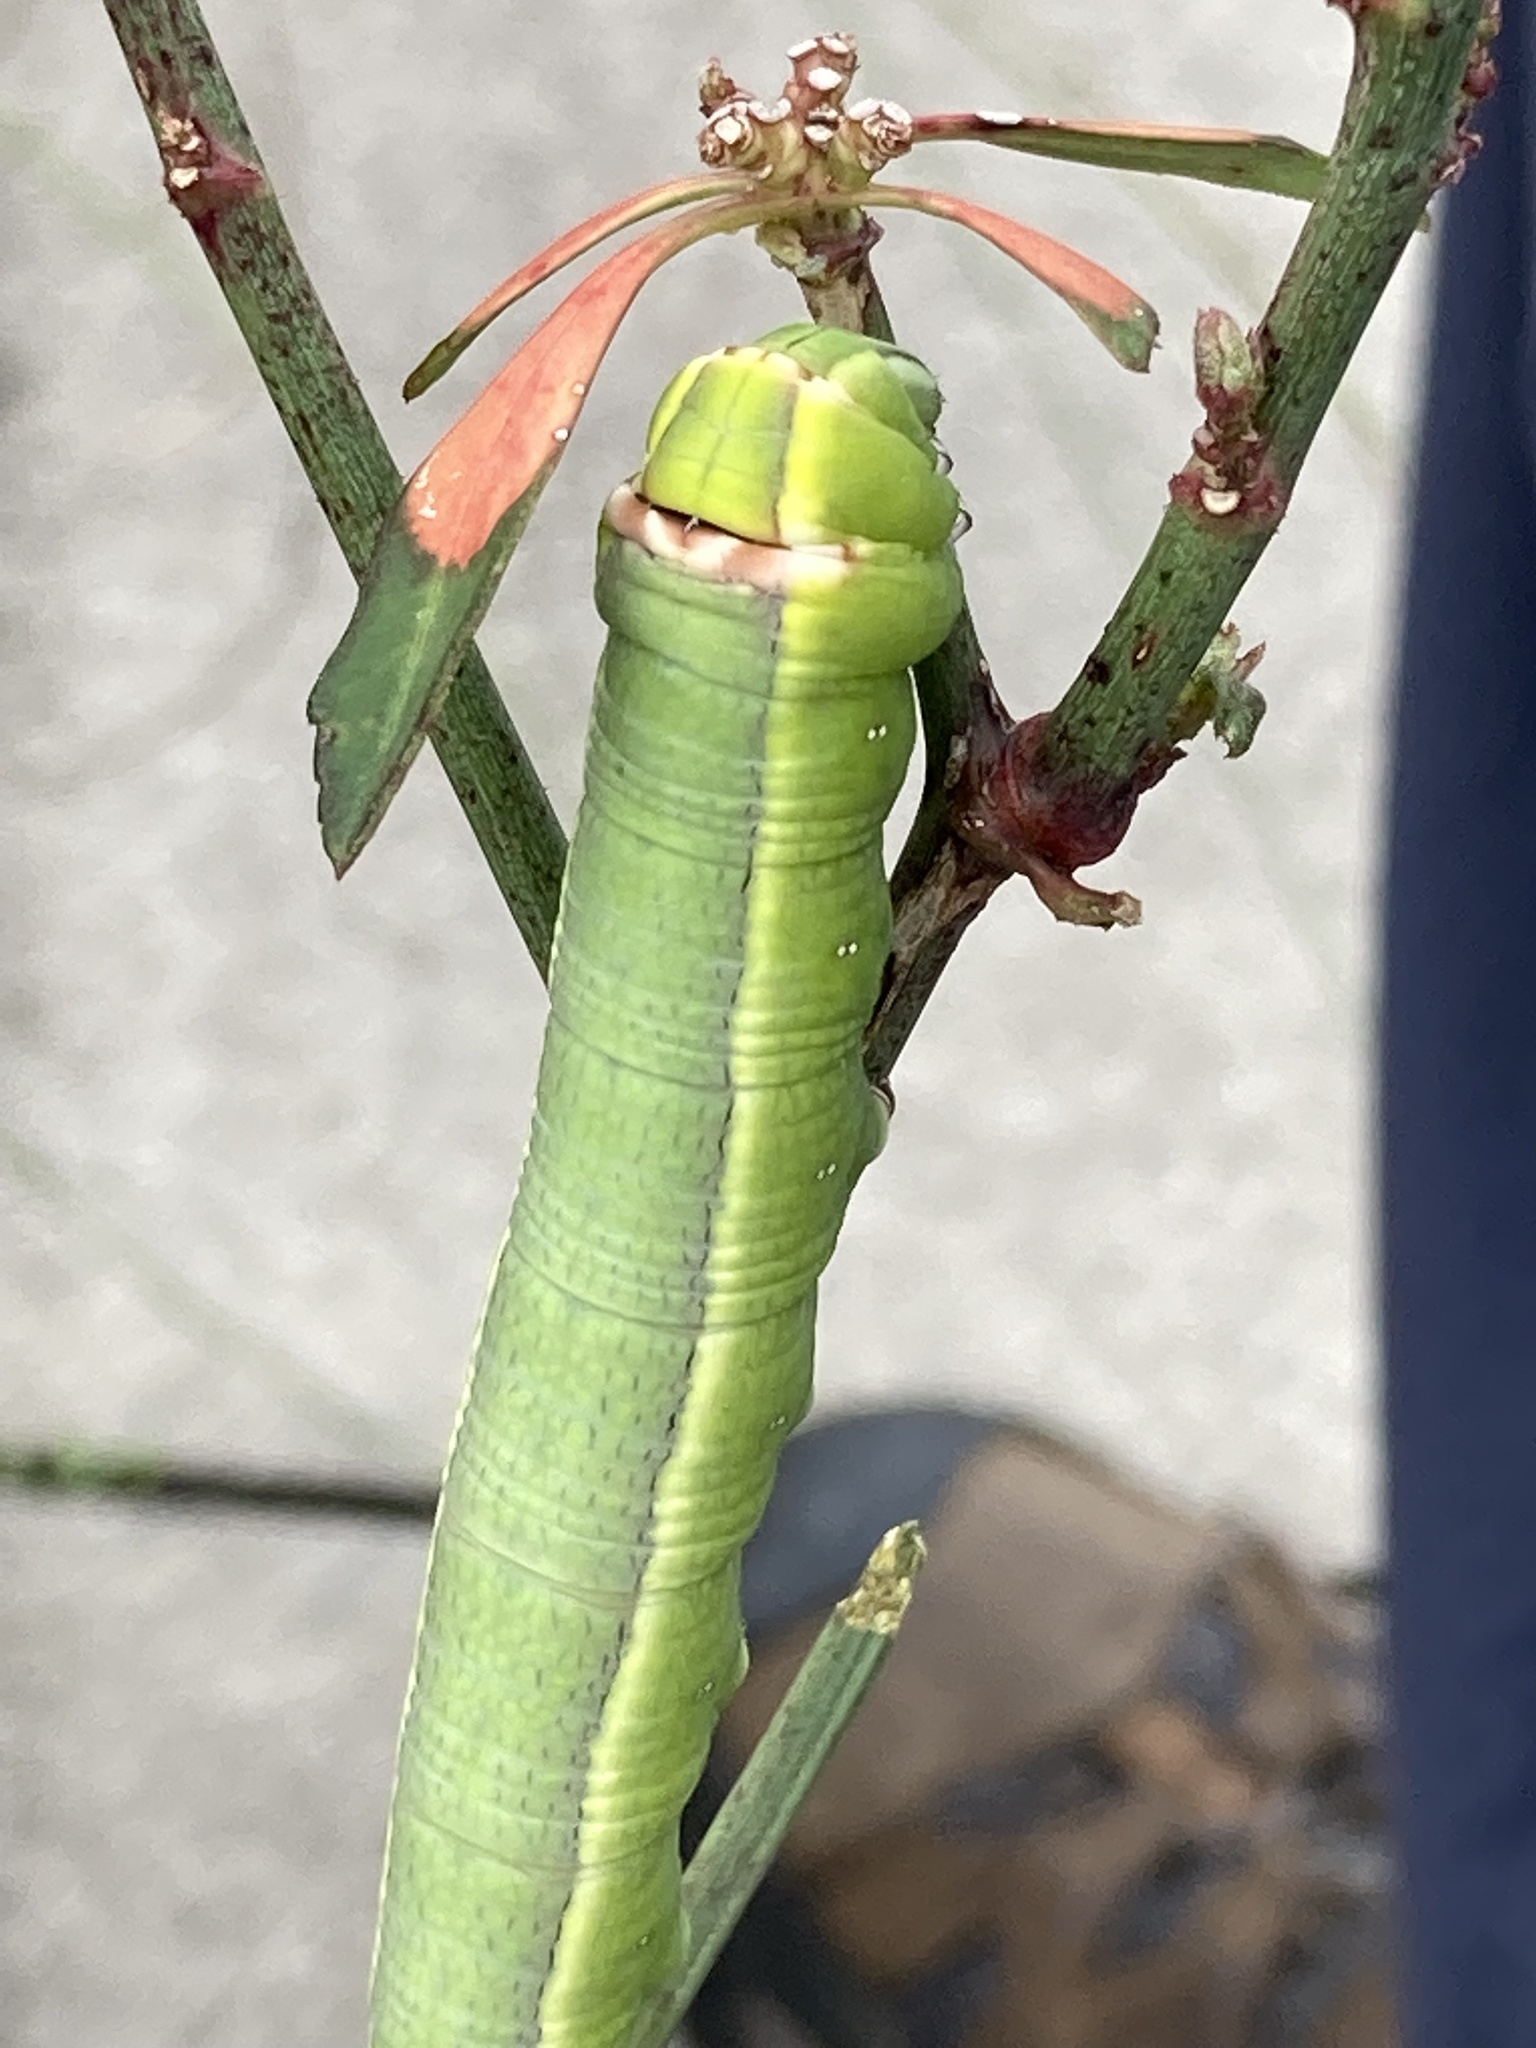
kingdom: Animalia
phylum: Arthropoda
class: Insecta
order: Lepidoptera
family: Sphingidae
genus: Erinnyis
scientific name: Erinnyis ello
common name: Ello sphinx
